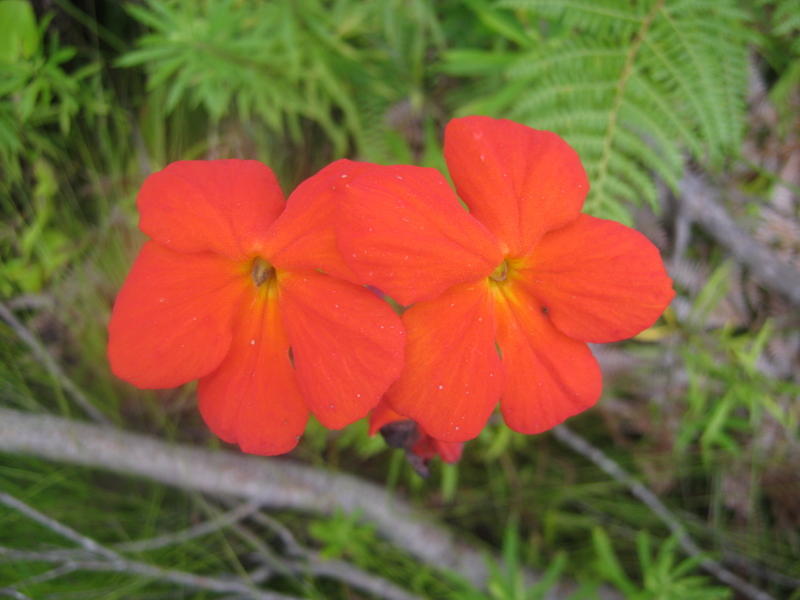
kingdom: Plantae
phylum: Tracheophyta
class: Magnoliopsida
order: Lamiales
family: Orobanchaceae
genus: Harveya
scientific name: Harveya stenosiphon
